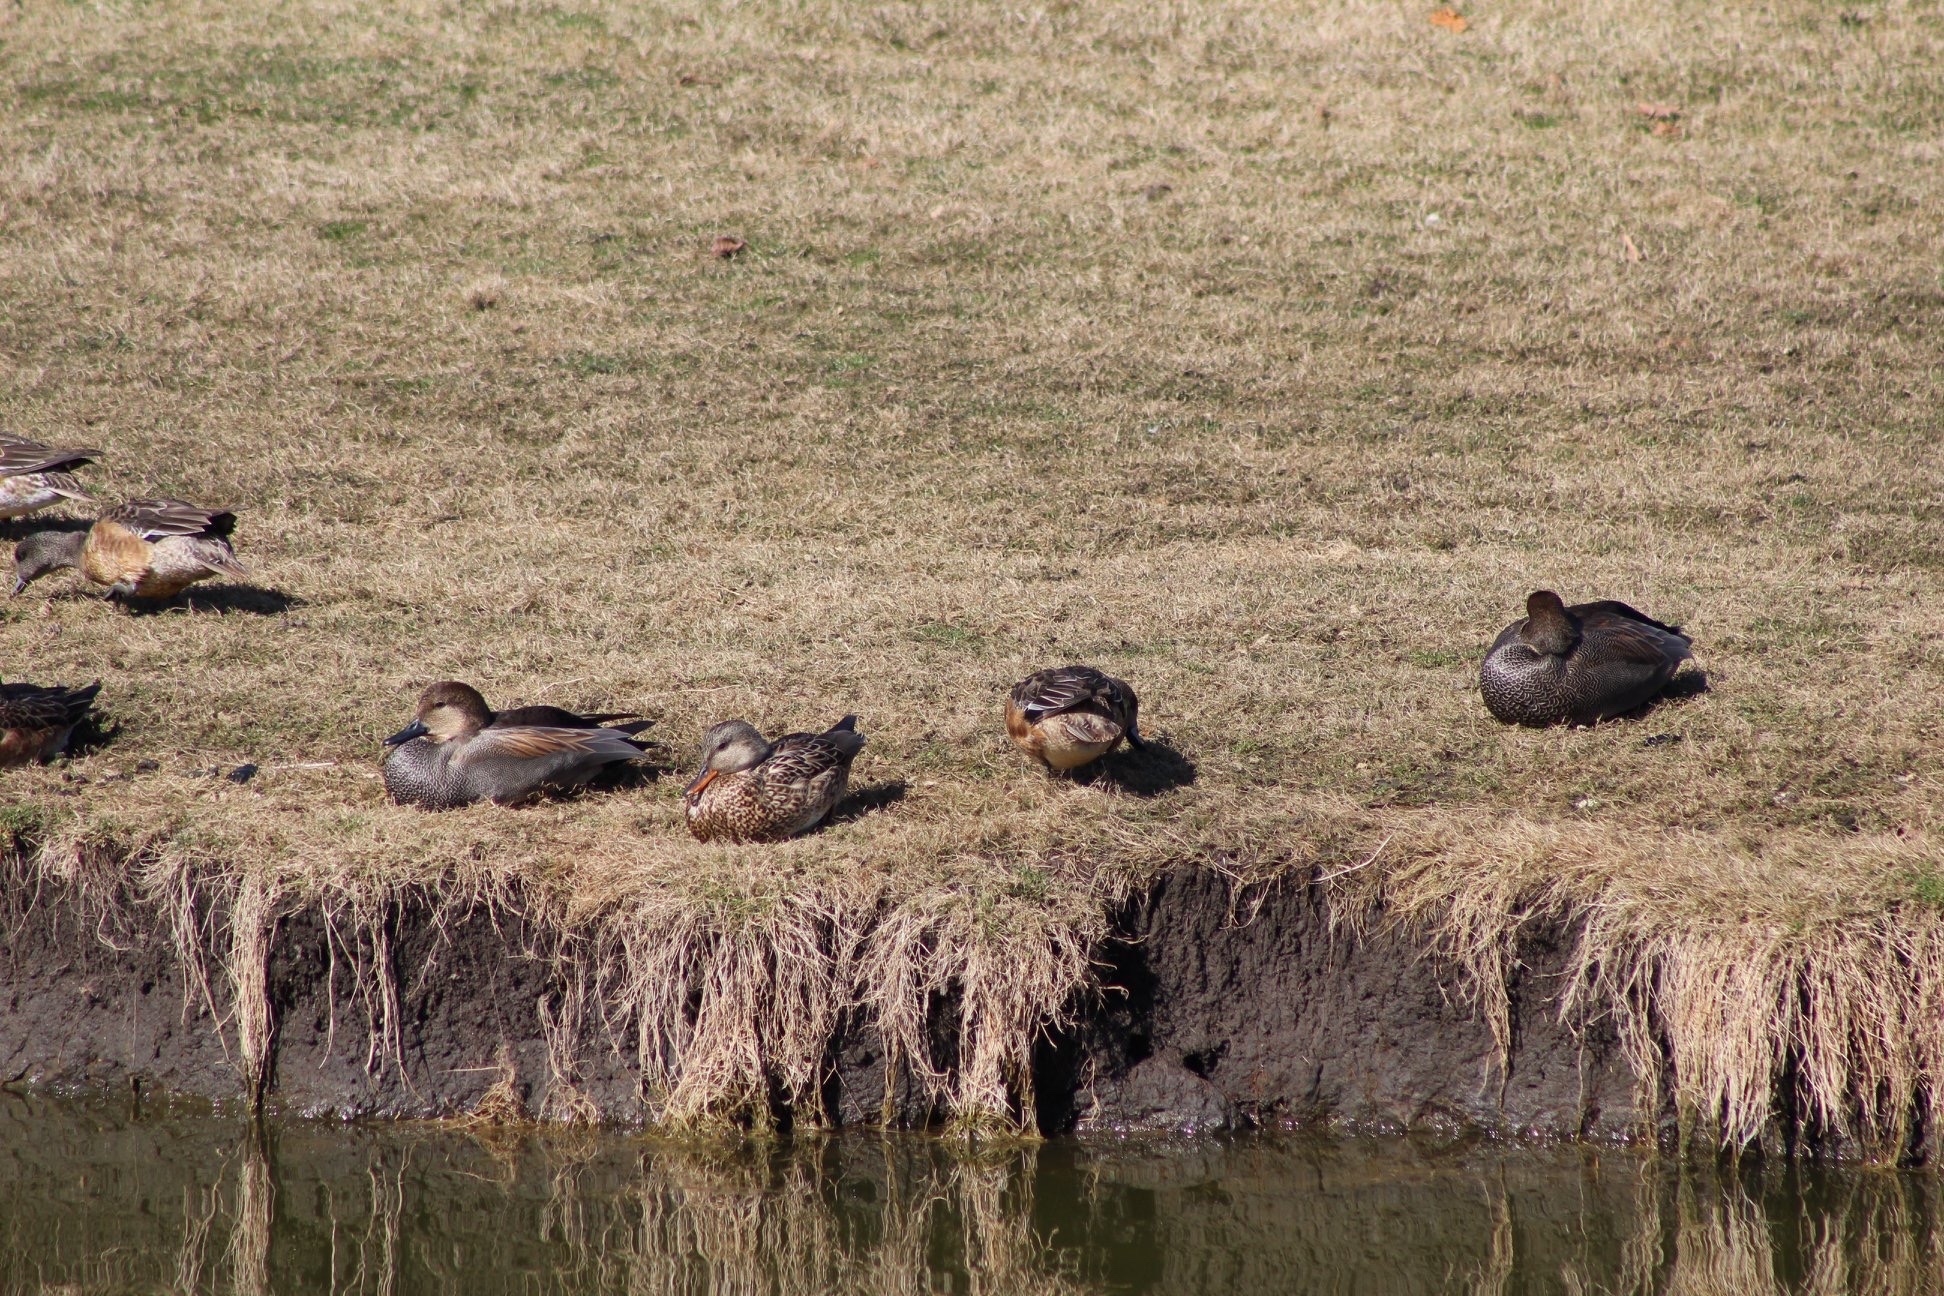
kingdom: Animalia
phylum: Chordata
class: Aves
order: Anseriformes
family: Anatidae
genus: Mareca
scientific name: Mareca strepera
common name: Gadwall
